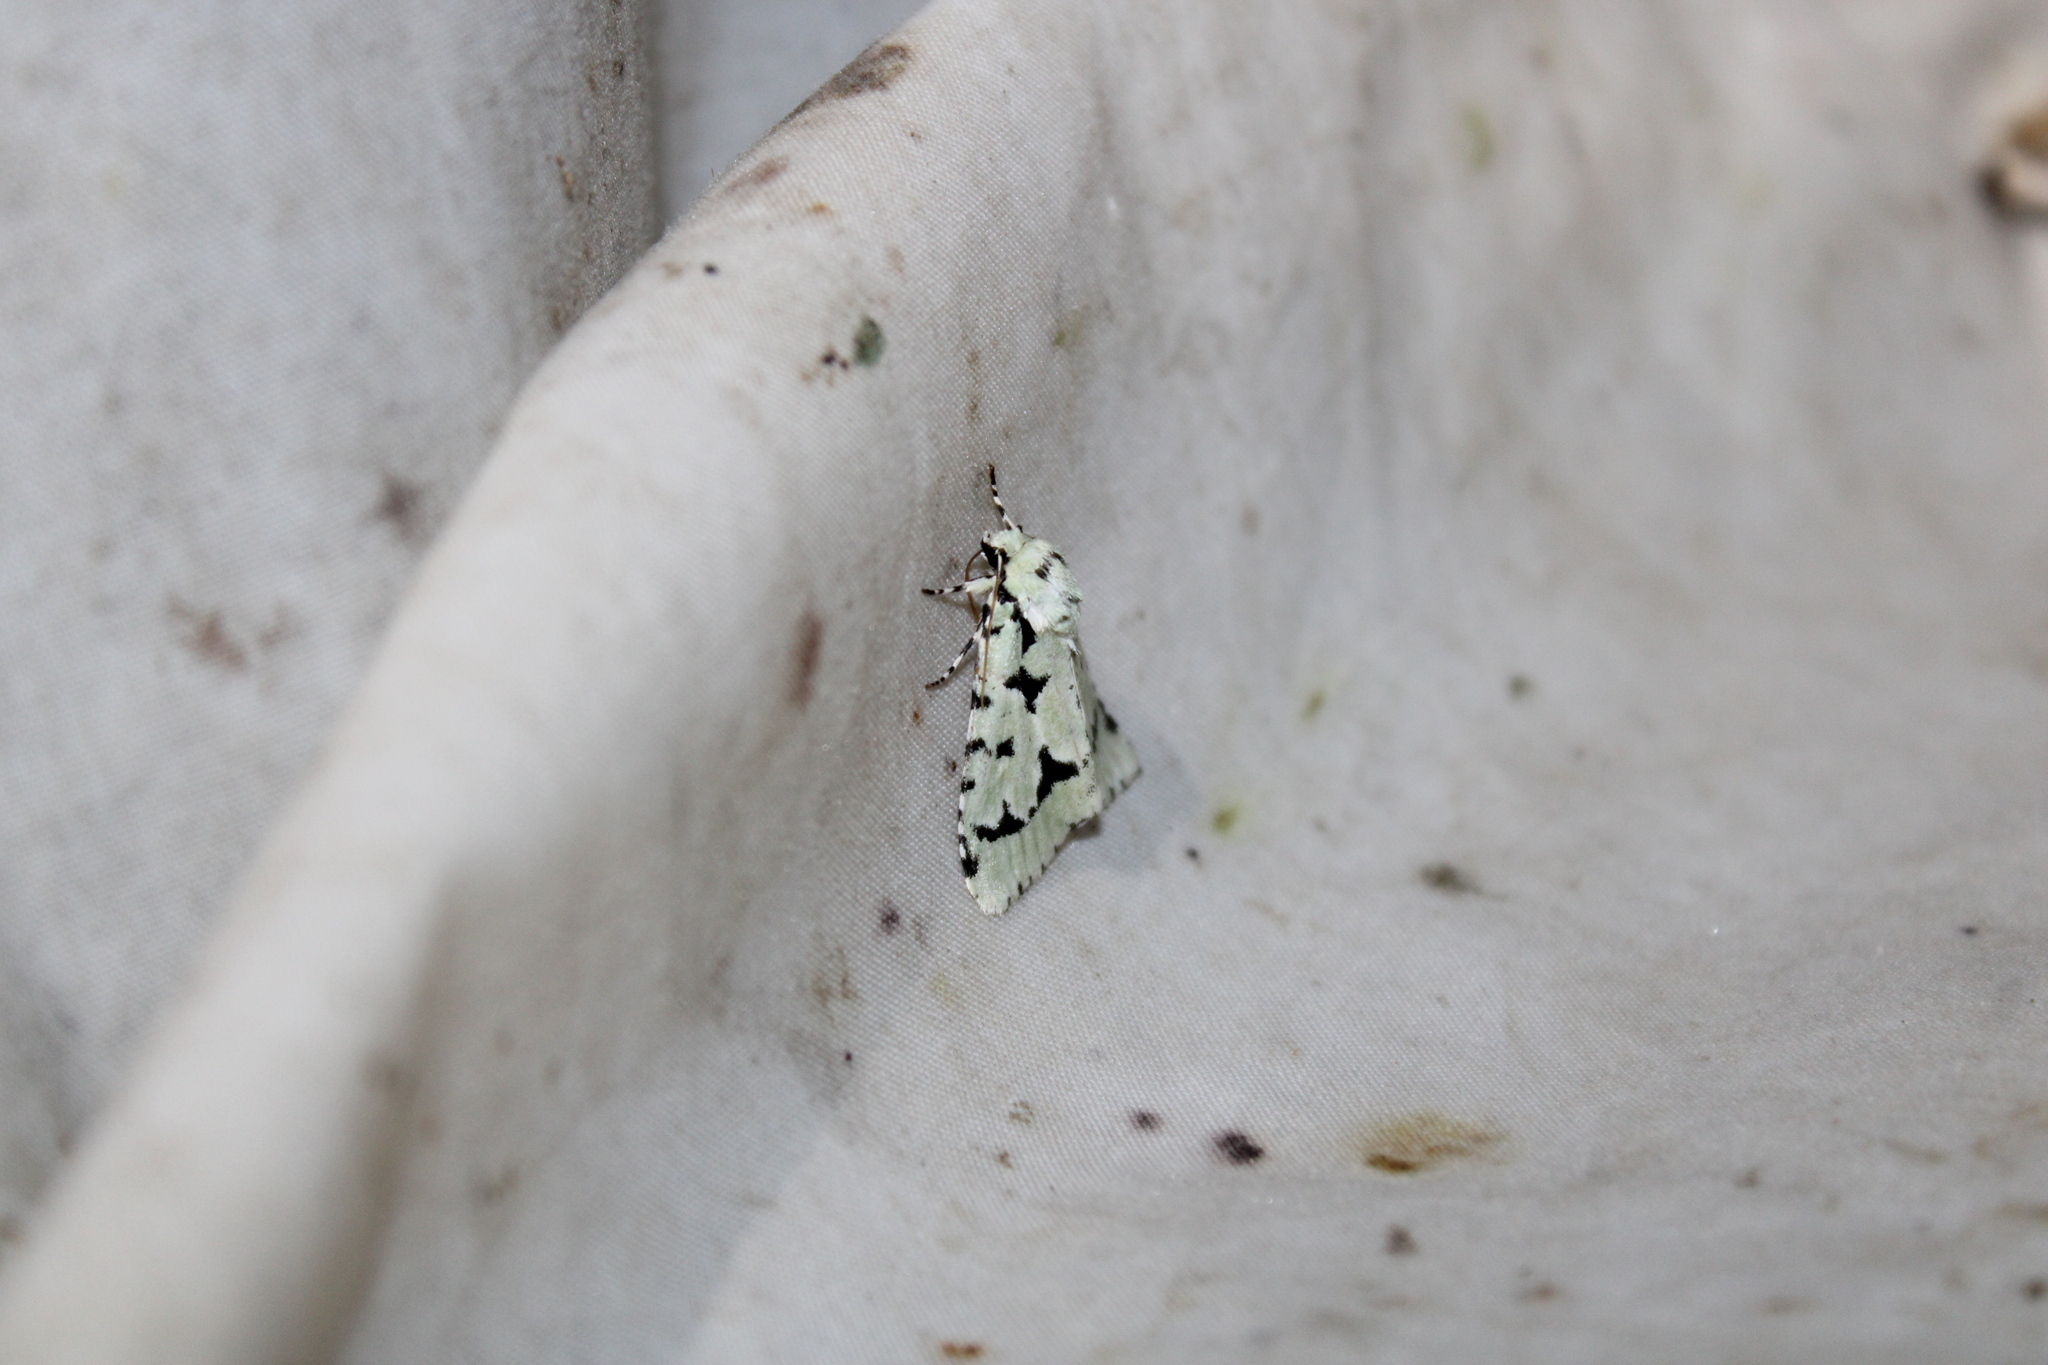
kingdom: Animalia
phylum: Arthropoda
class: Insecta
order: Lepidoptera
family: Noctuidae
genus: Acronicta
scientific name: Acronicta fallax
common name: Green marvel
